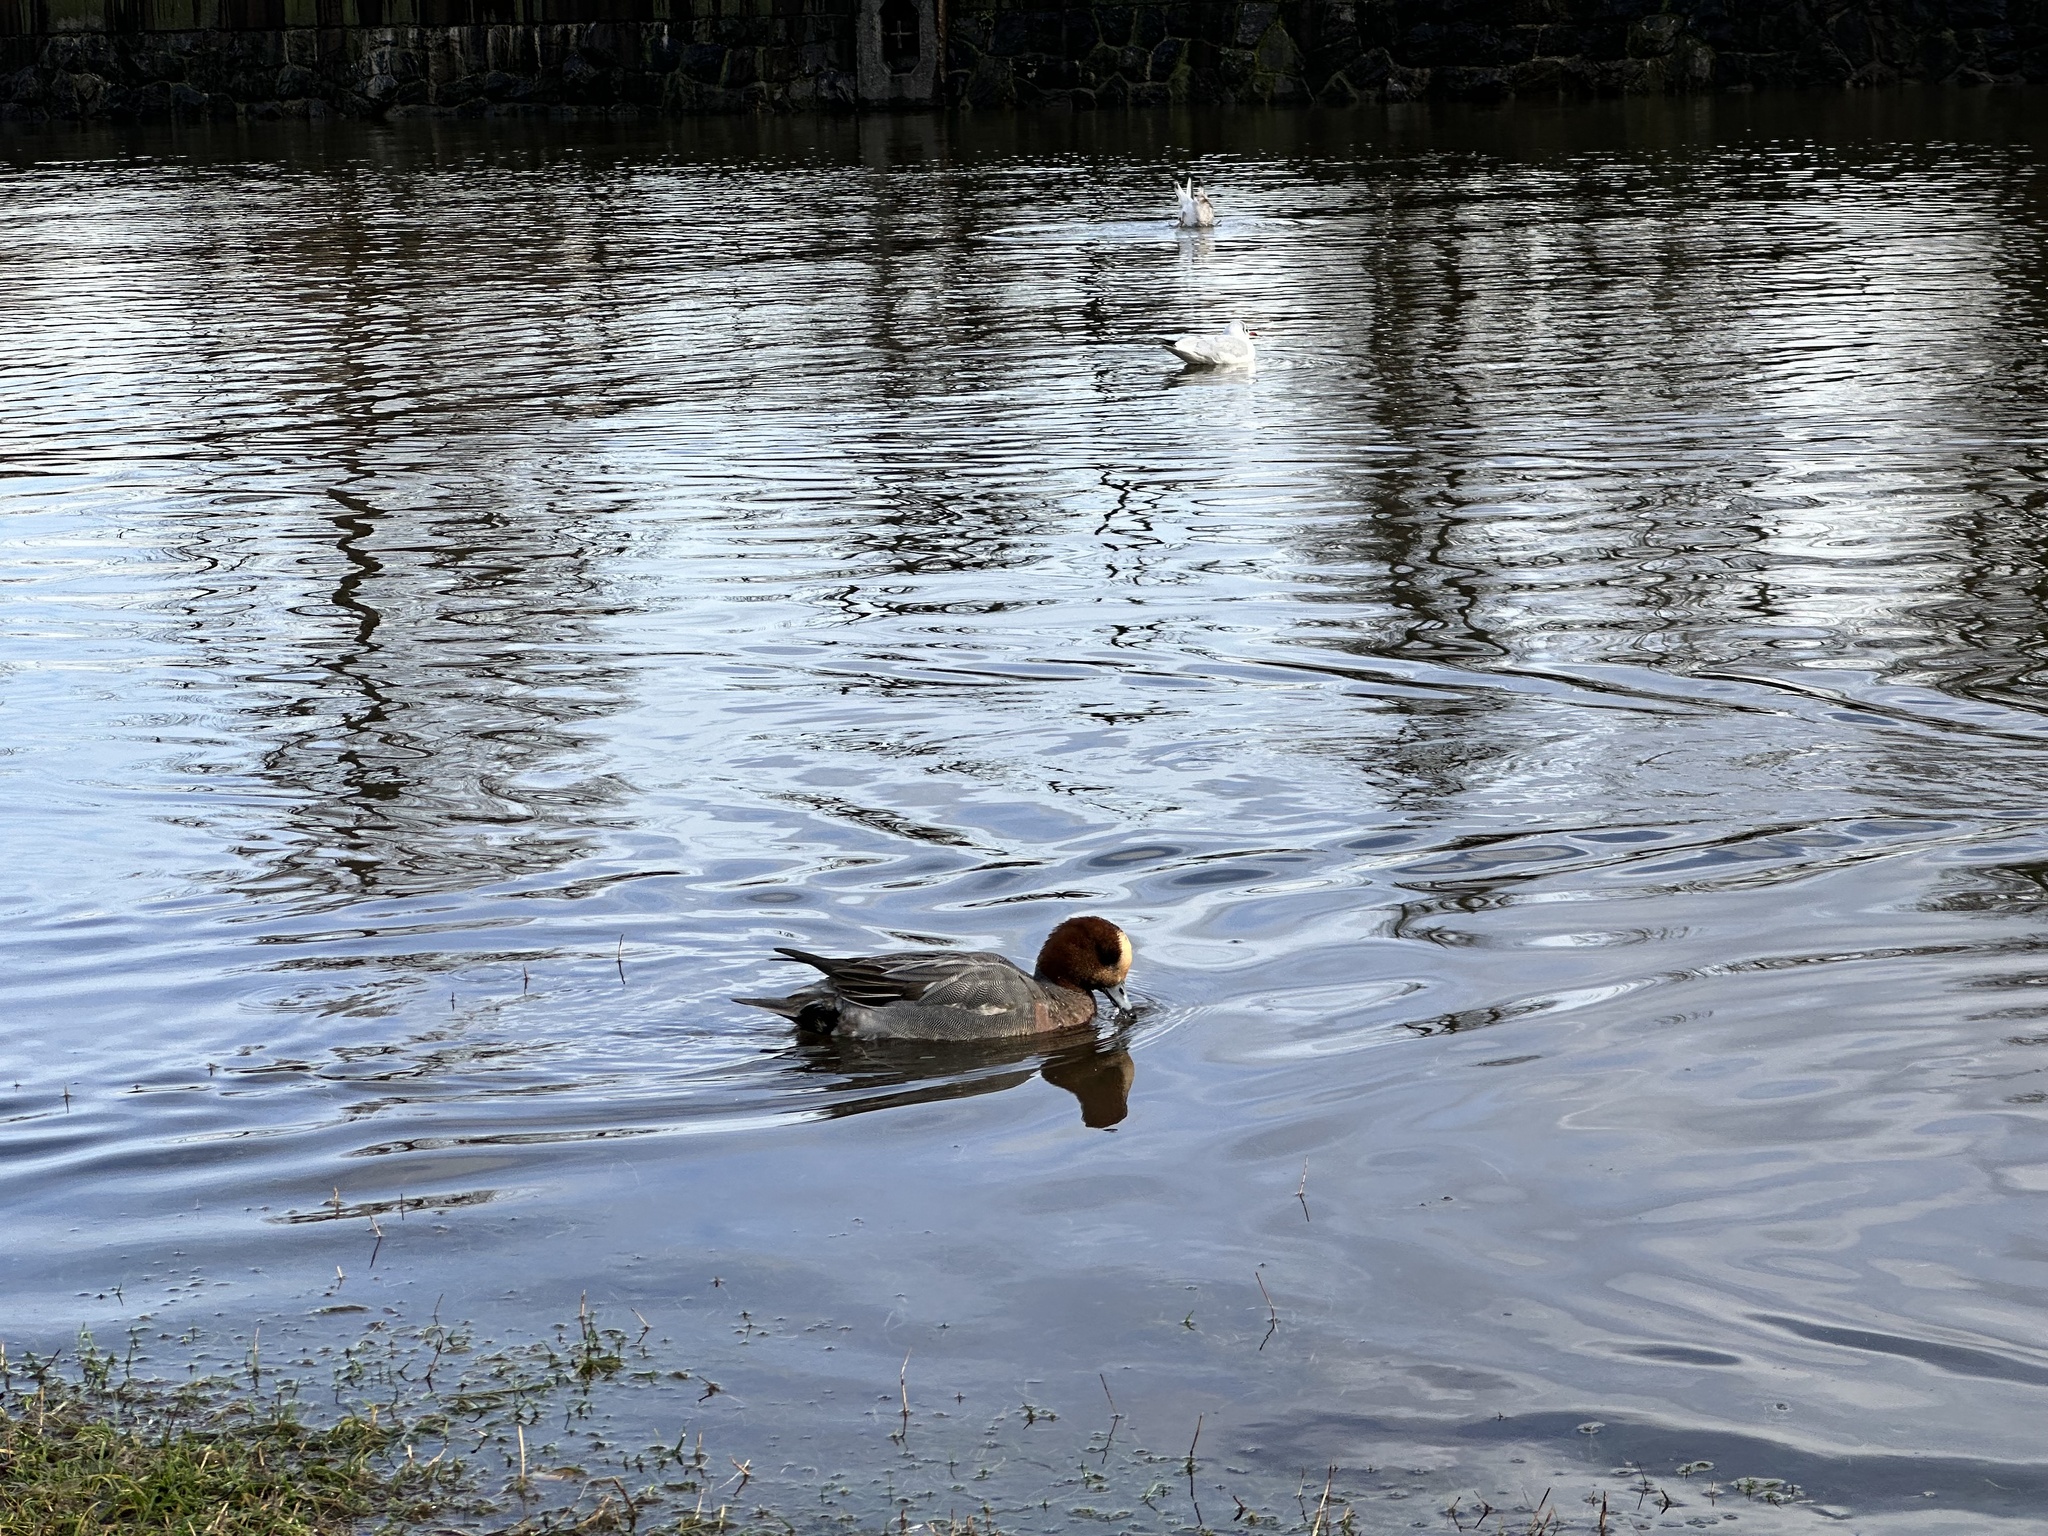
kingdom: Animalia
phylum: Chordata
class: Aves
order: Anseriformes
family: Anatidae
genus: Mareca
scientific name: Mareca penelope
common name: Eurasian wigeon
